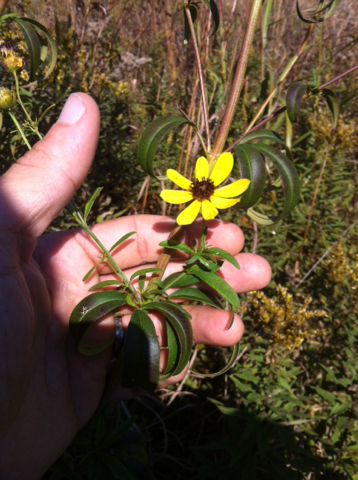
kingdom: Plantae
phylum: Tracheophyta
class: Magnoliopsida
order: Asterales
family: Asteraceae
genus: Coreopsis
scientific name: Coreopsis tripteris
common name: Tall coreopsis
